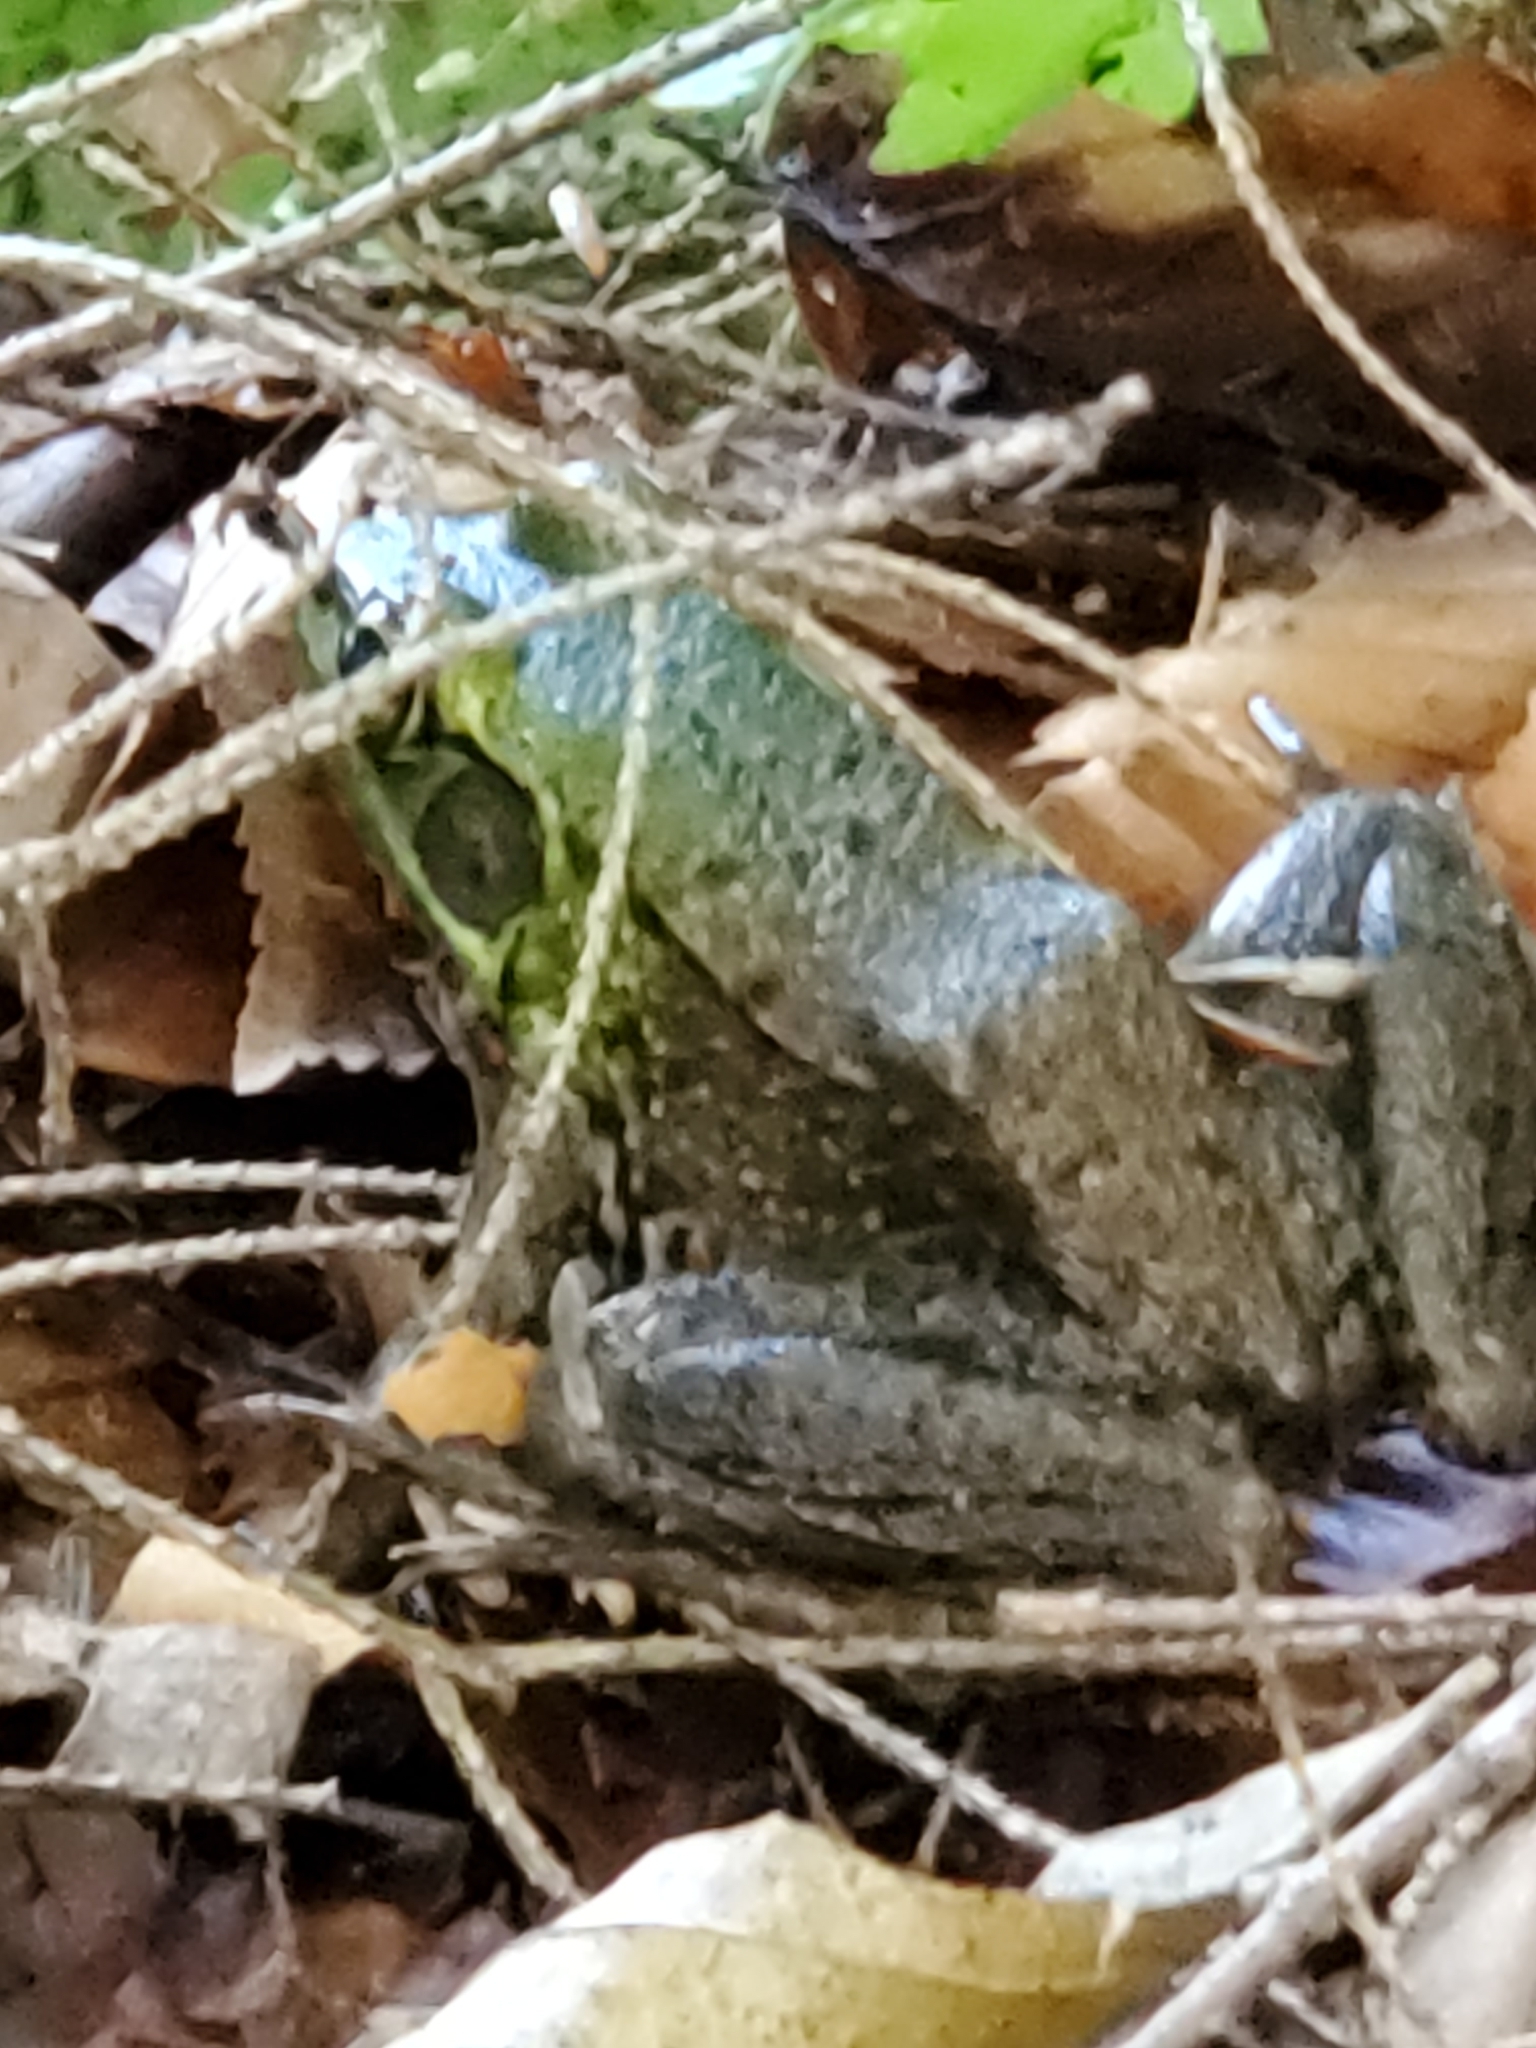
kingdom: Animalia
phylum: Chordata
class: Amphibia
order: Anura
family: Ranidae
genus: Lithobates
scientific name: Lithobates clamitans
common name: Green frog
